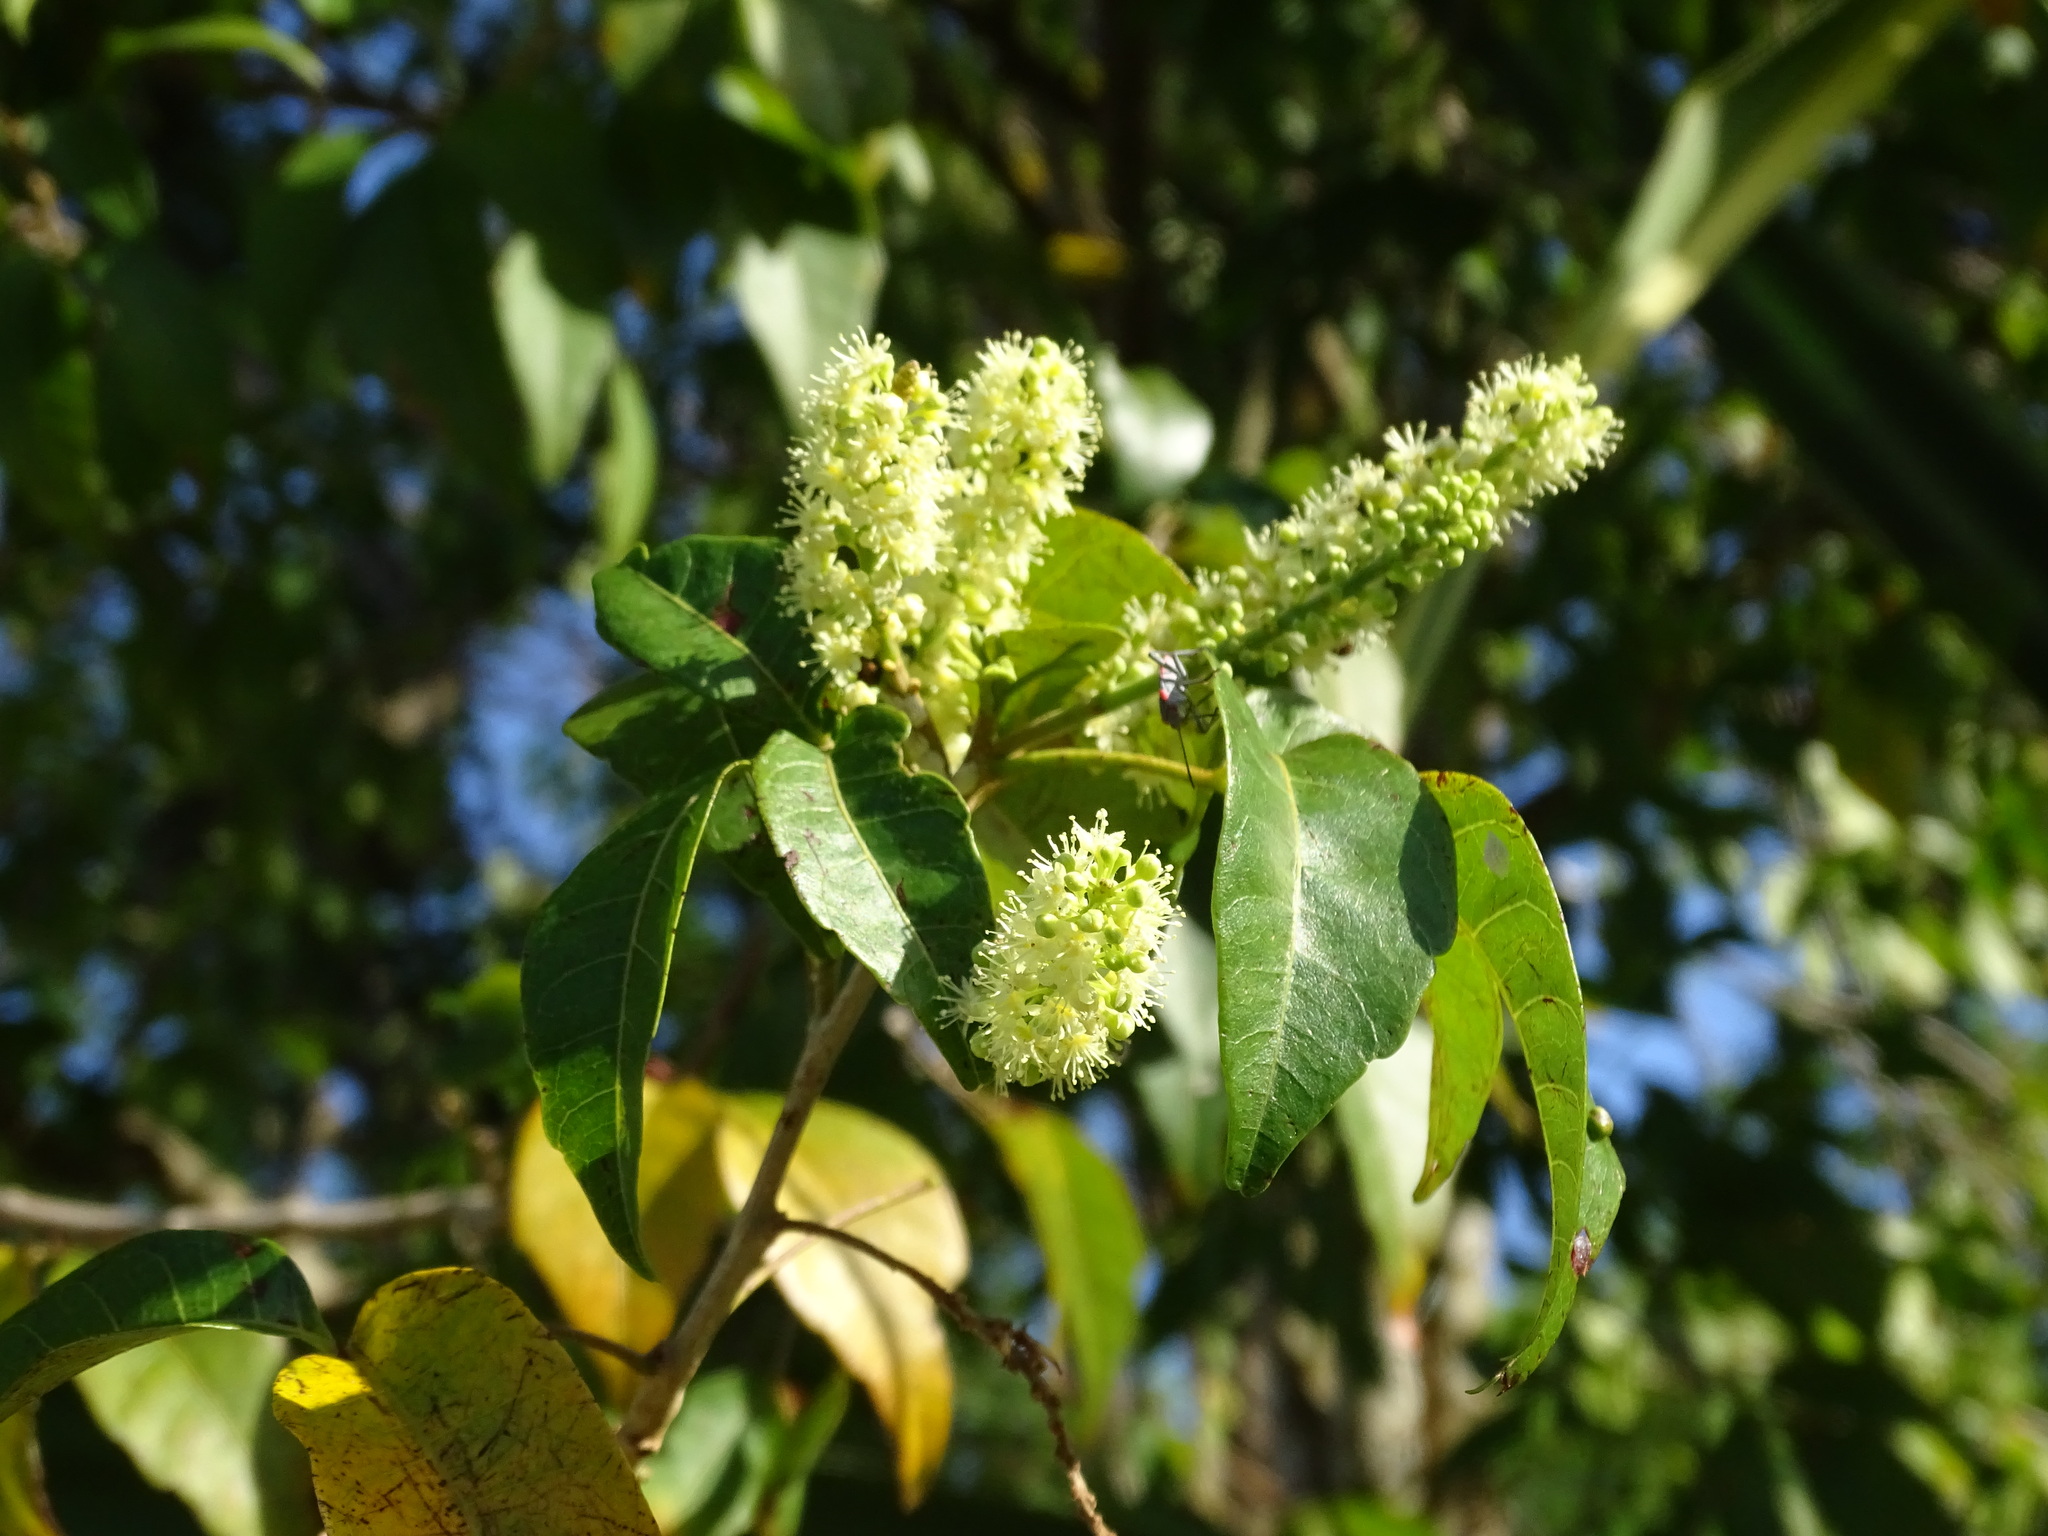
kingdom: Plantae
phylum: Tracheophyta
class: Magnoliopsida
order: Sapindales
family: Sapindaceae
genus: Thouinia
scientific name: Thouinia paucidentata
